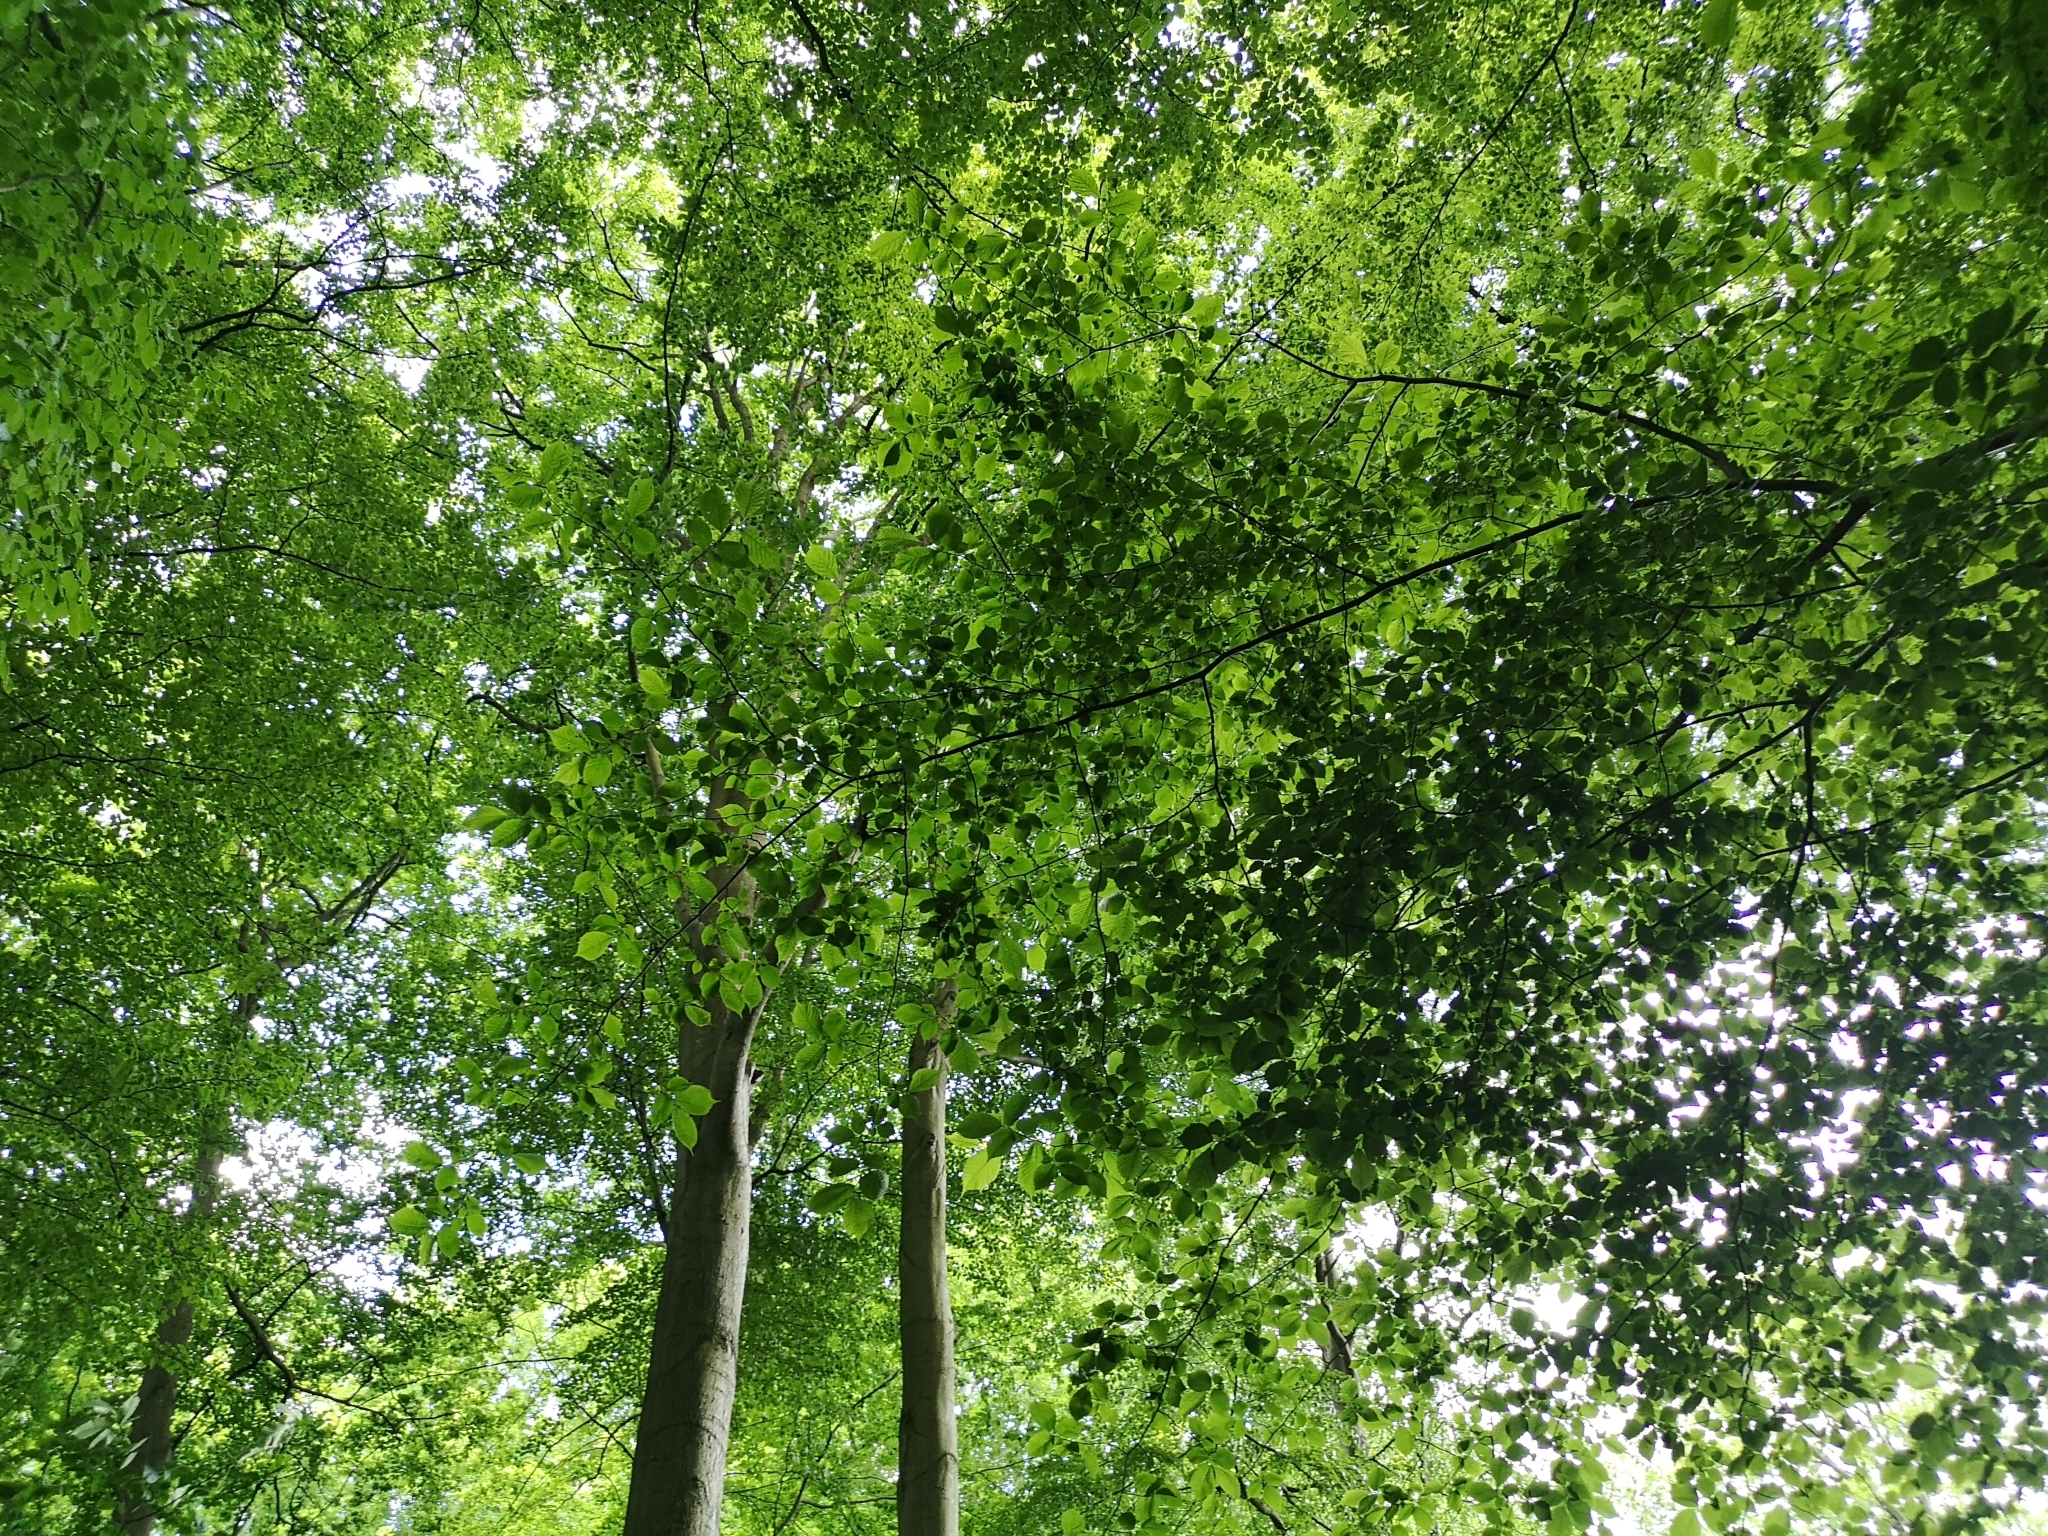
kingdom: Plantae
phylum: Tracheophyta
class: Magnoliopsida
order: Fagales
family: Fagaceae
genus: Fagus
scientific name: Fagus sylvatica
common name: Beech
